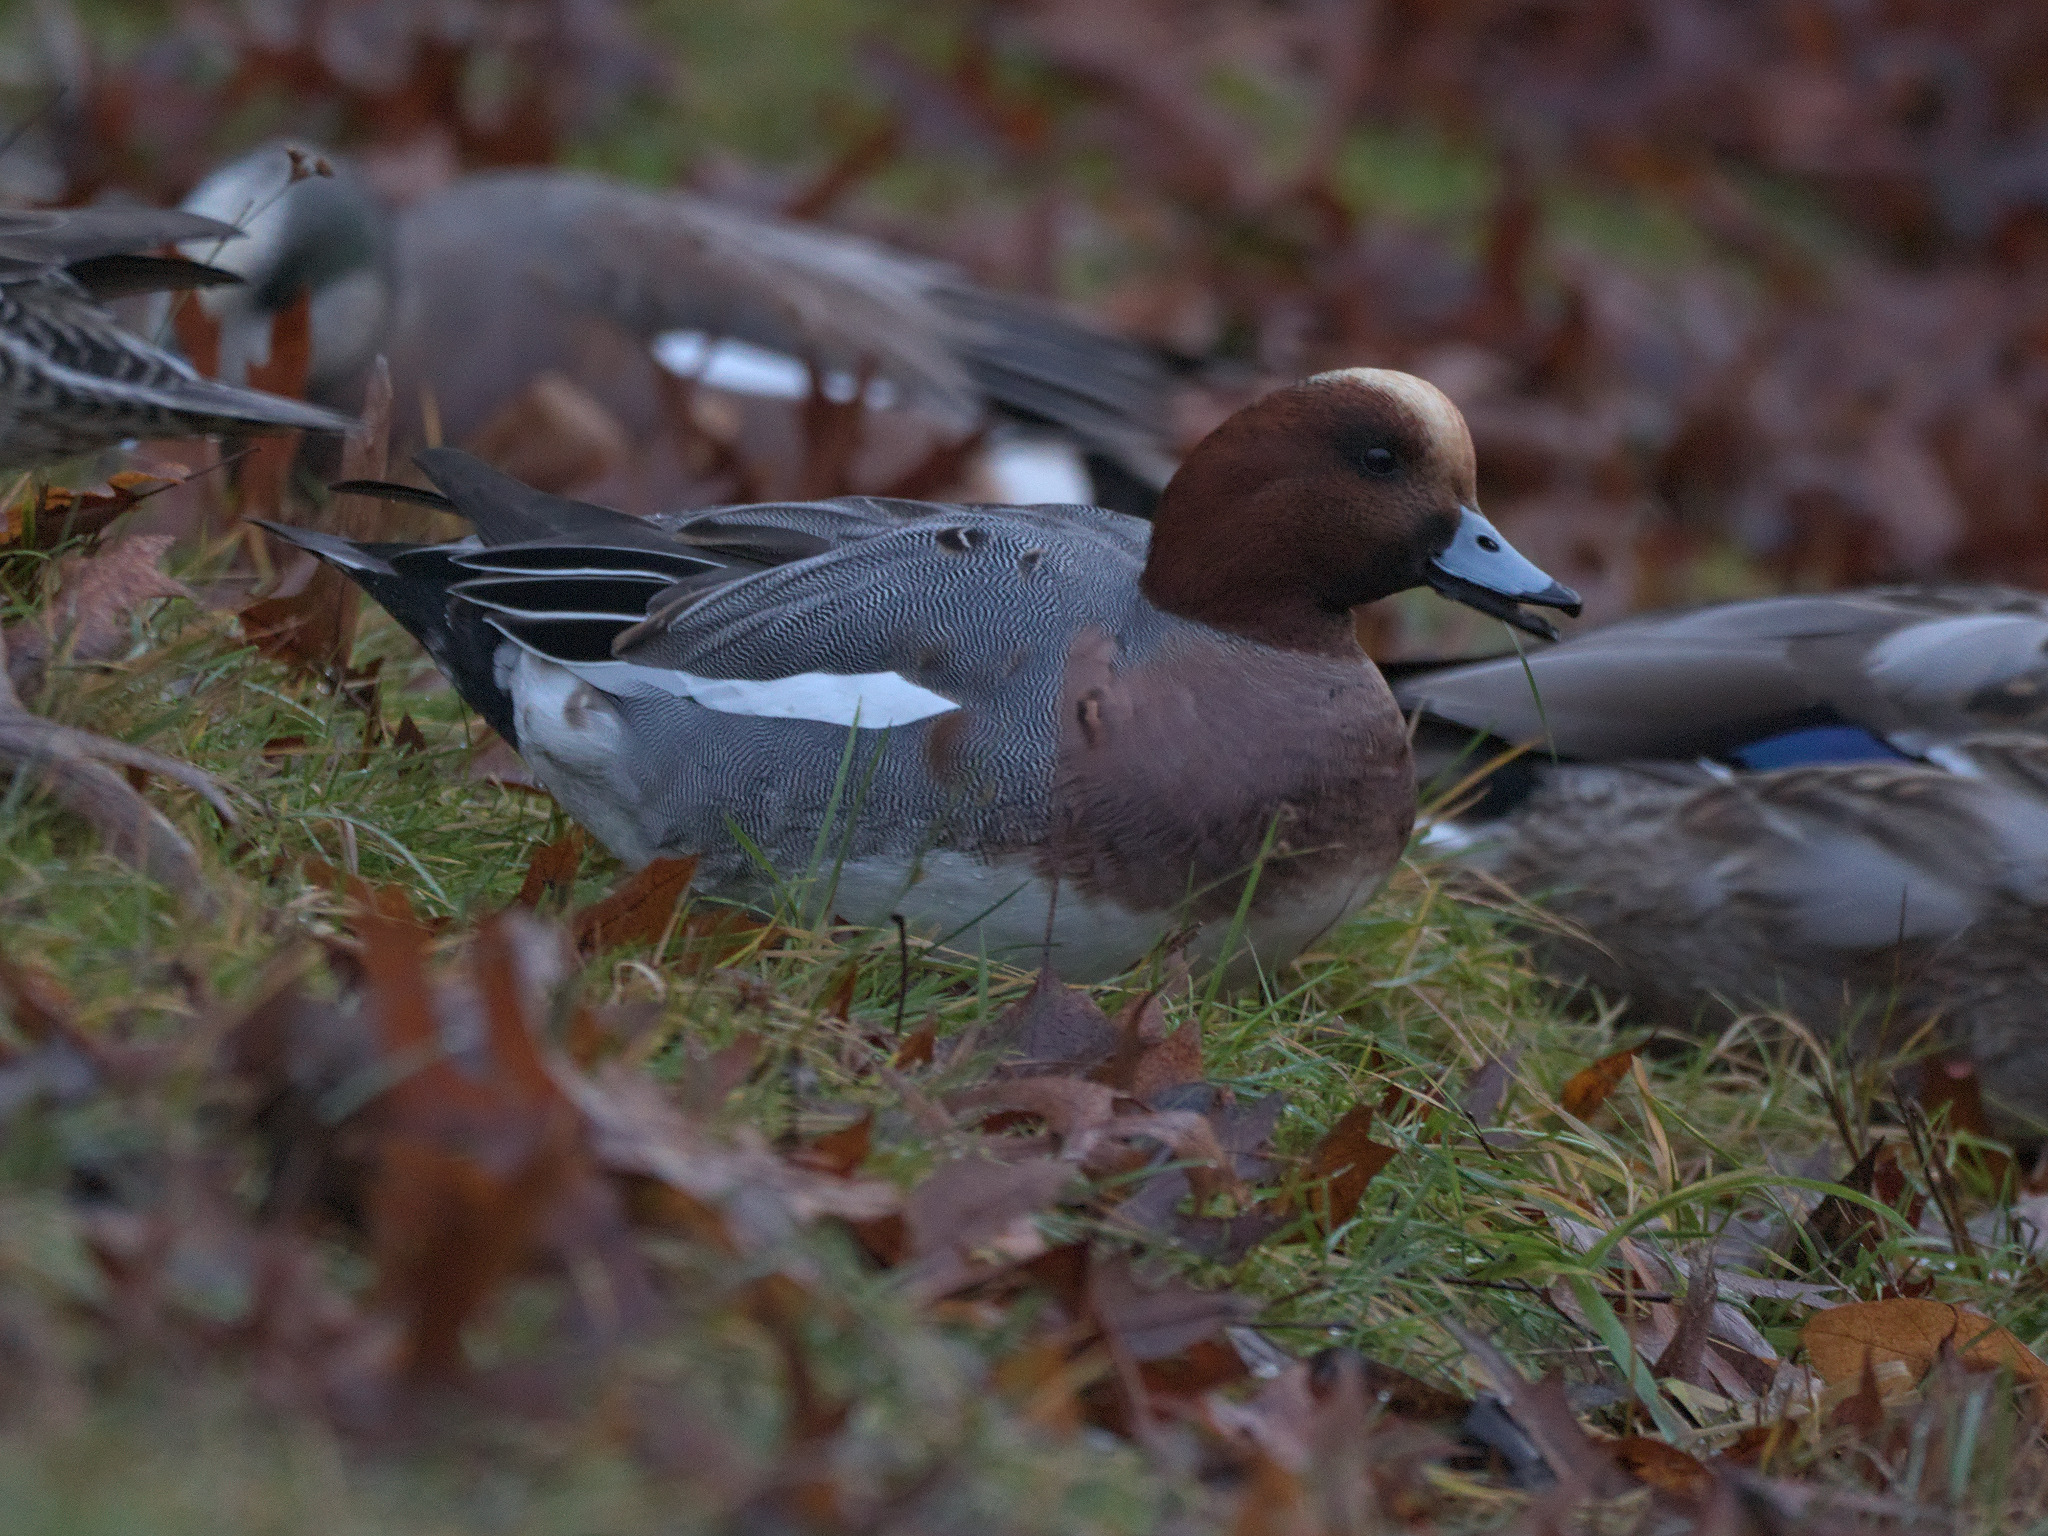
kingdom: Animalia
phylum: Chordata
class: Aves
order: Anseriformes
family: Anatidae
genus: Mareca
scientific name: Mareca penelope
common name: Eurasian wigeon
